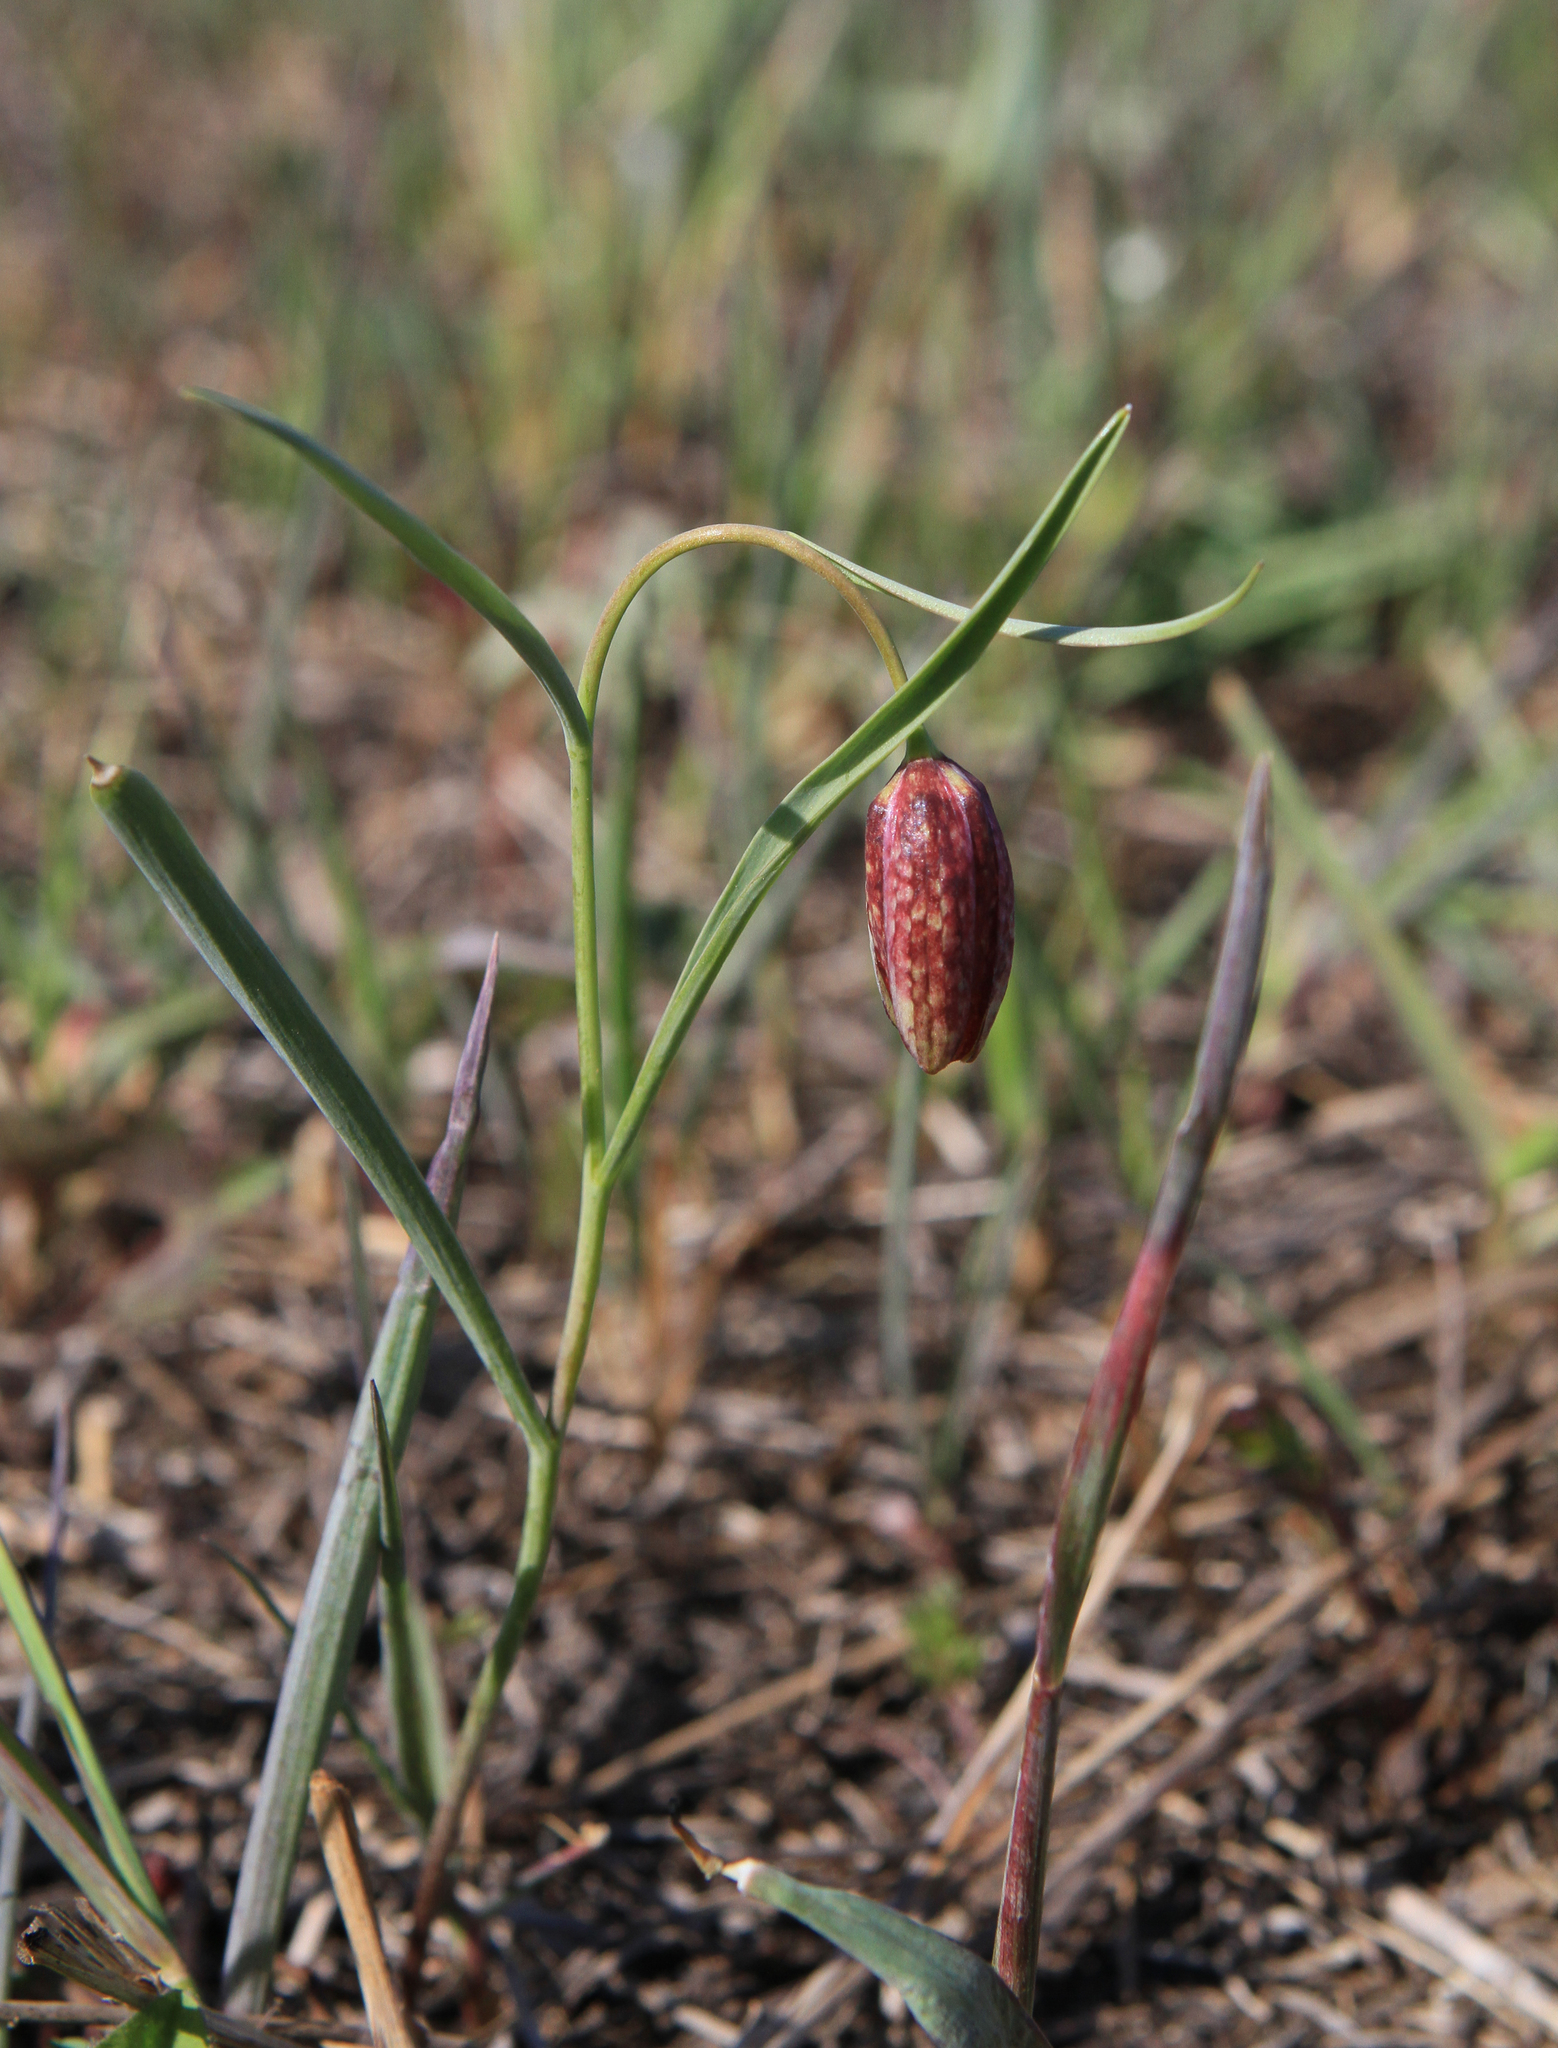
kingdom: Plantae
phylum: Tracheophyta
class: Liliopsida
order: Liliales
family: Liliaceae
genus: Fritillaria
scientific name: Fritillaria meleagroides
